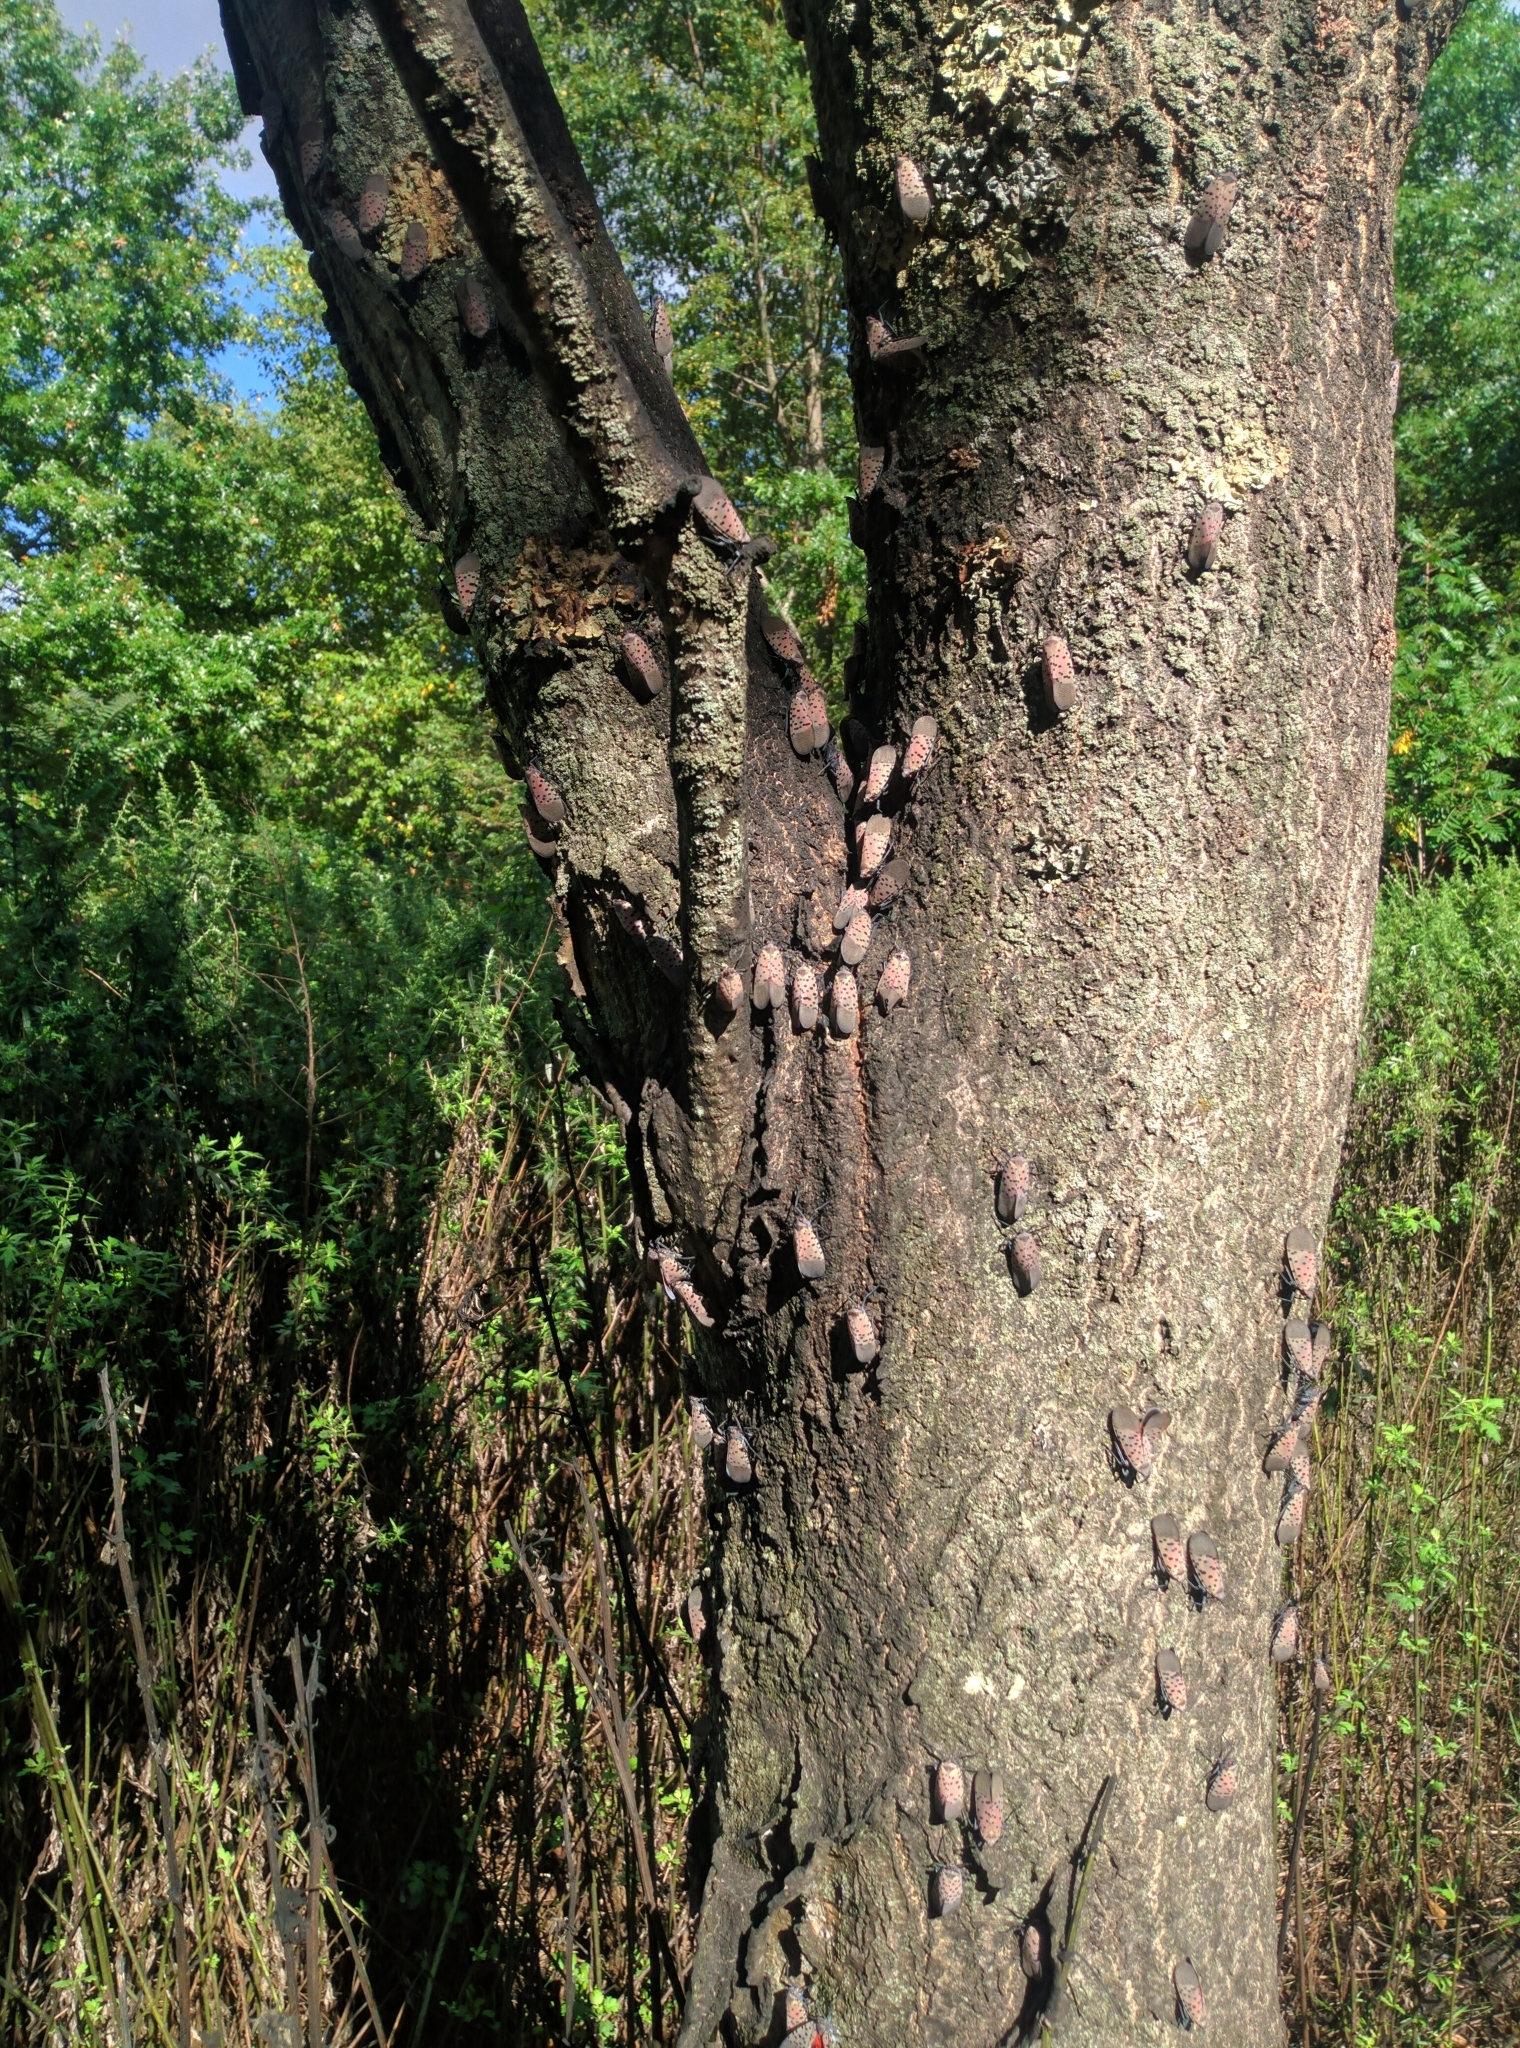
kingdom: Animalia
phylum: Arthropoda
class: Insecta
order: Hemiptera
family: Fulgoridae
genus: Lycorma
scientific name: Lycorma delicatula
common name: Spotted lanternfly
